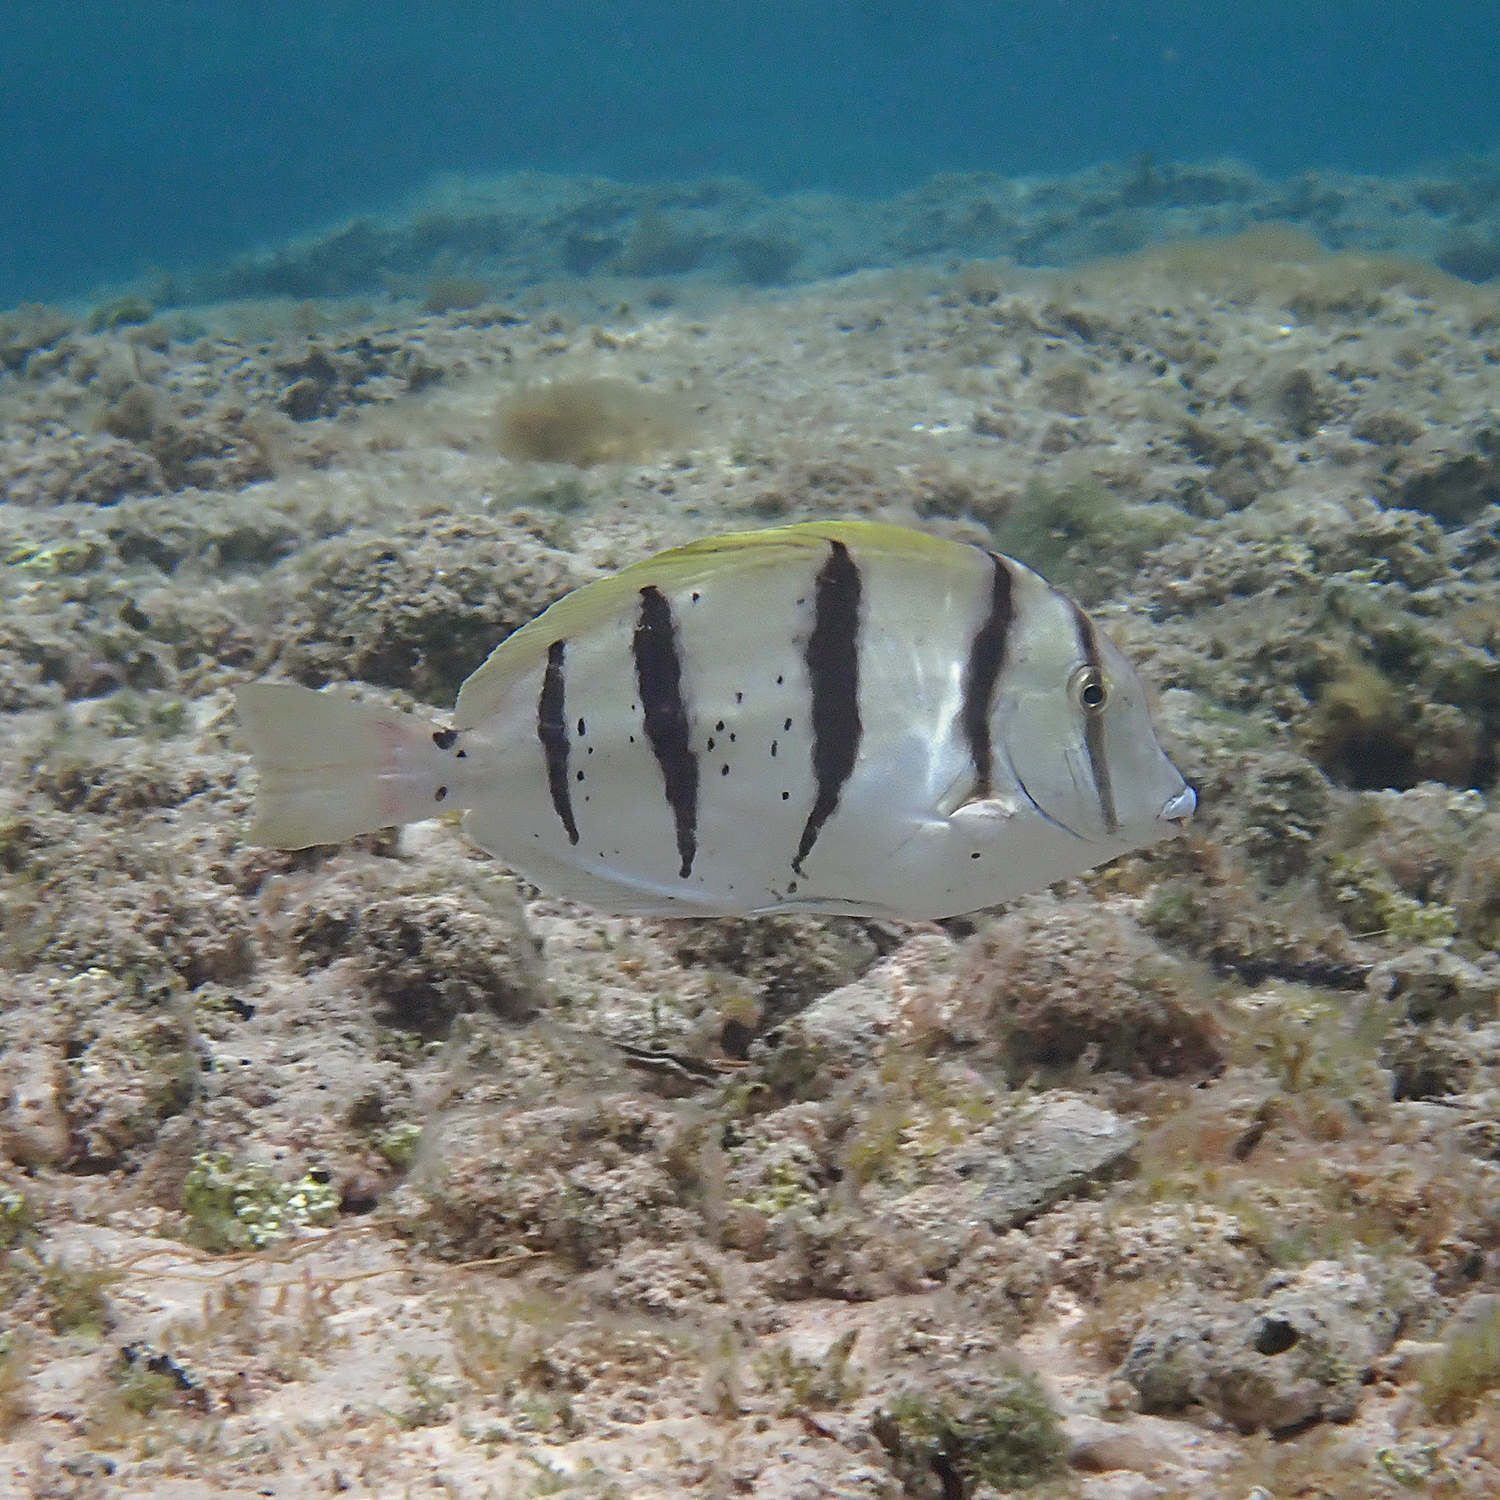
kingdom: Animalia
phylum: Chordata
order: Perciformes
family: Acanthuridae
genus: Acanthurus
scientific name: Acanthurus triostegus
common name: Convict surgeonfish
